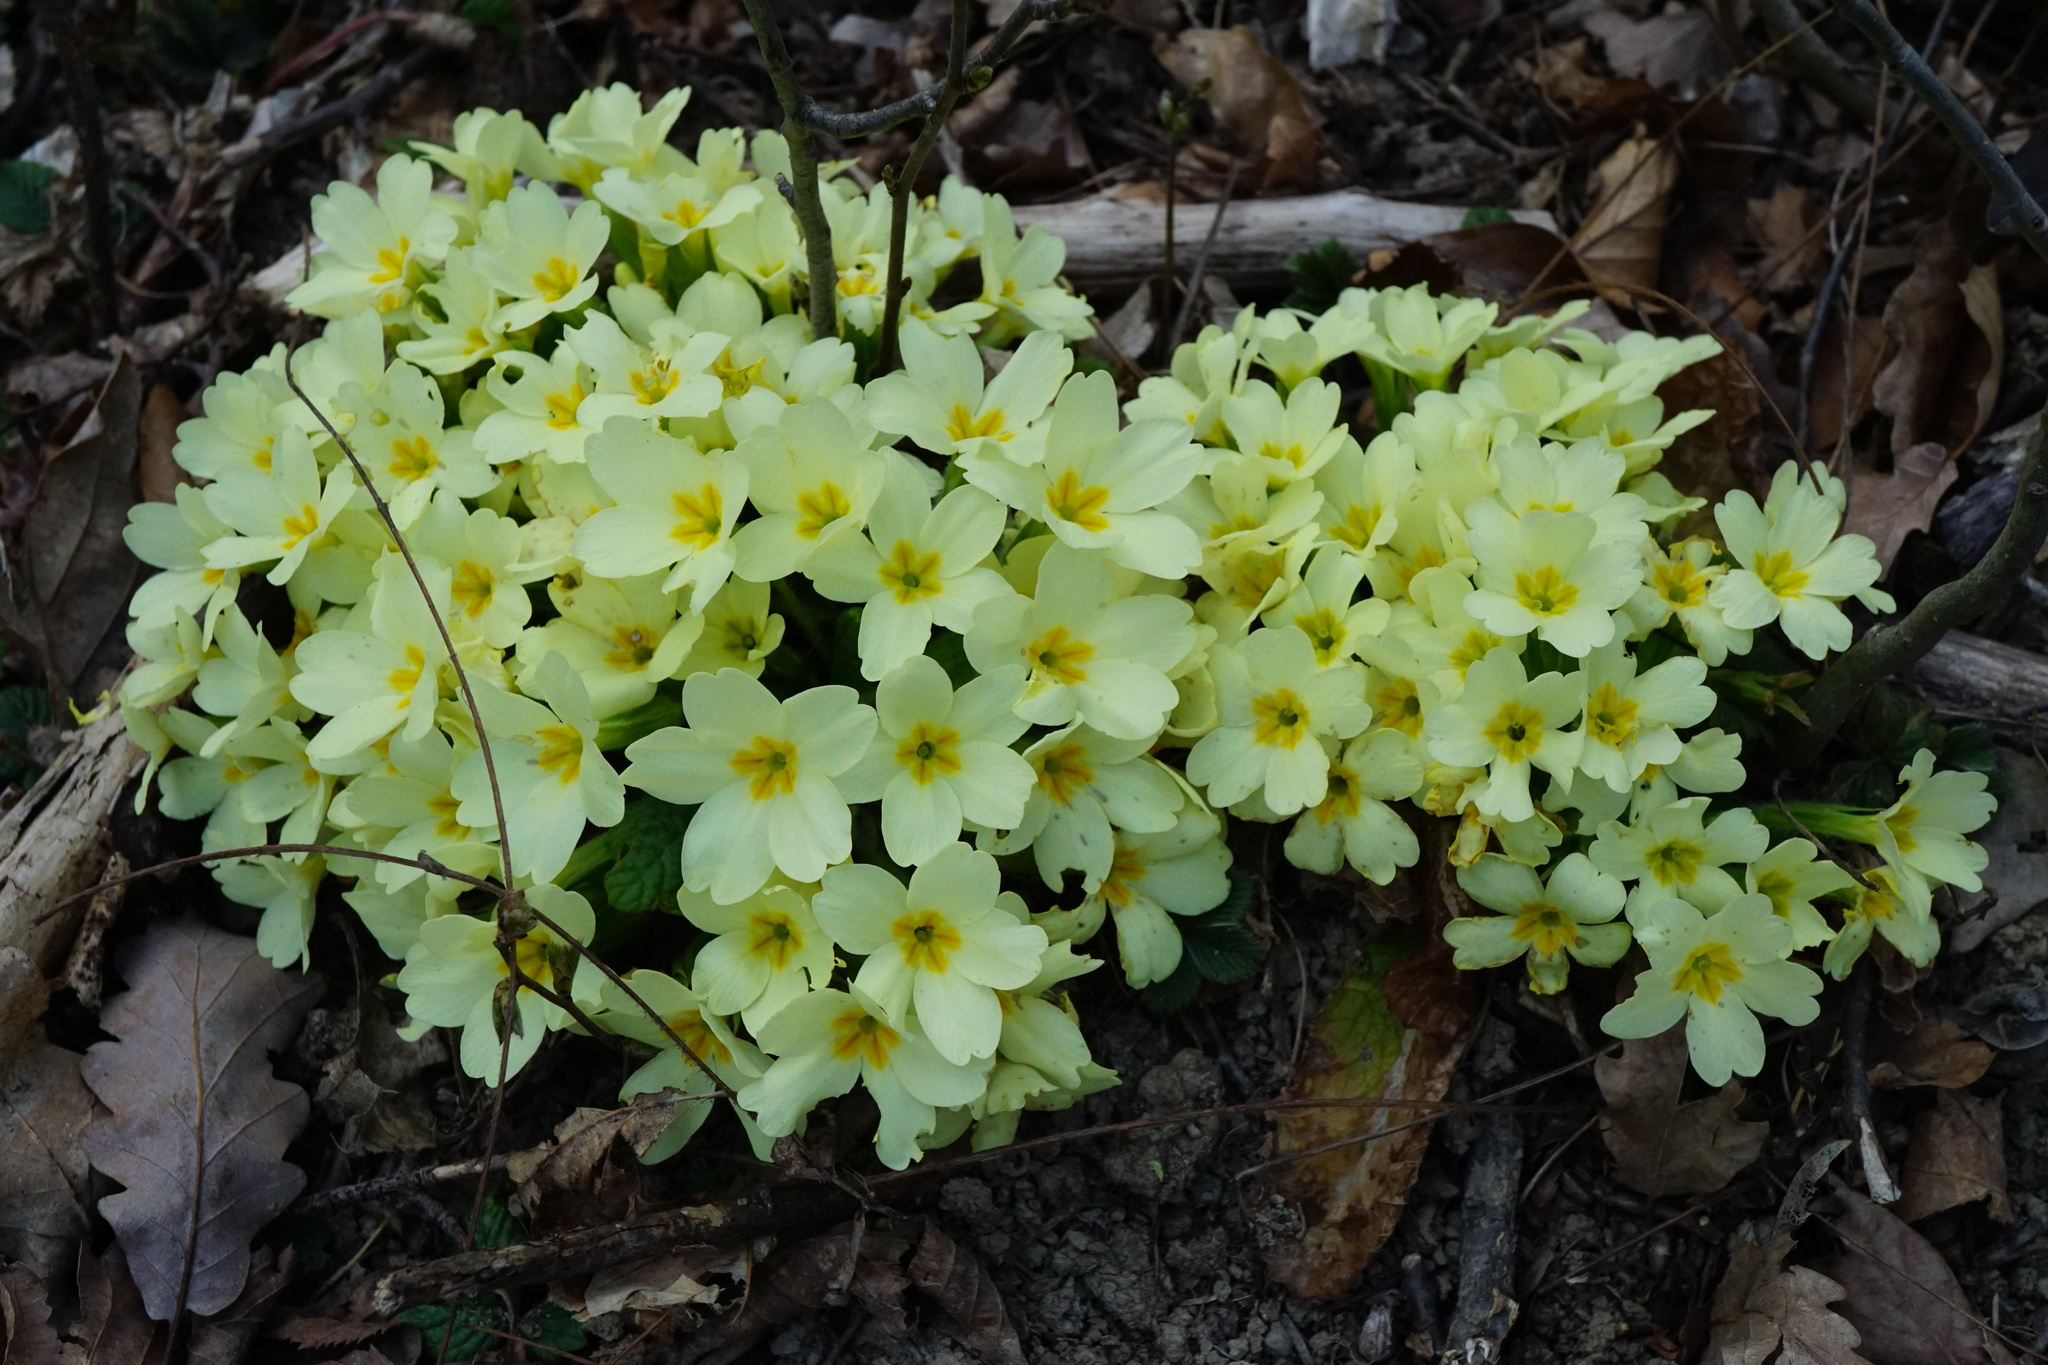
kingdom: Plantae
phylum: Tracheophyta
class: Magnoliopsida
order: Ericales
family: Primulaceae
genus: Primula
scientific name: Primula vulgaris
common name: Primrose
